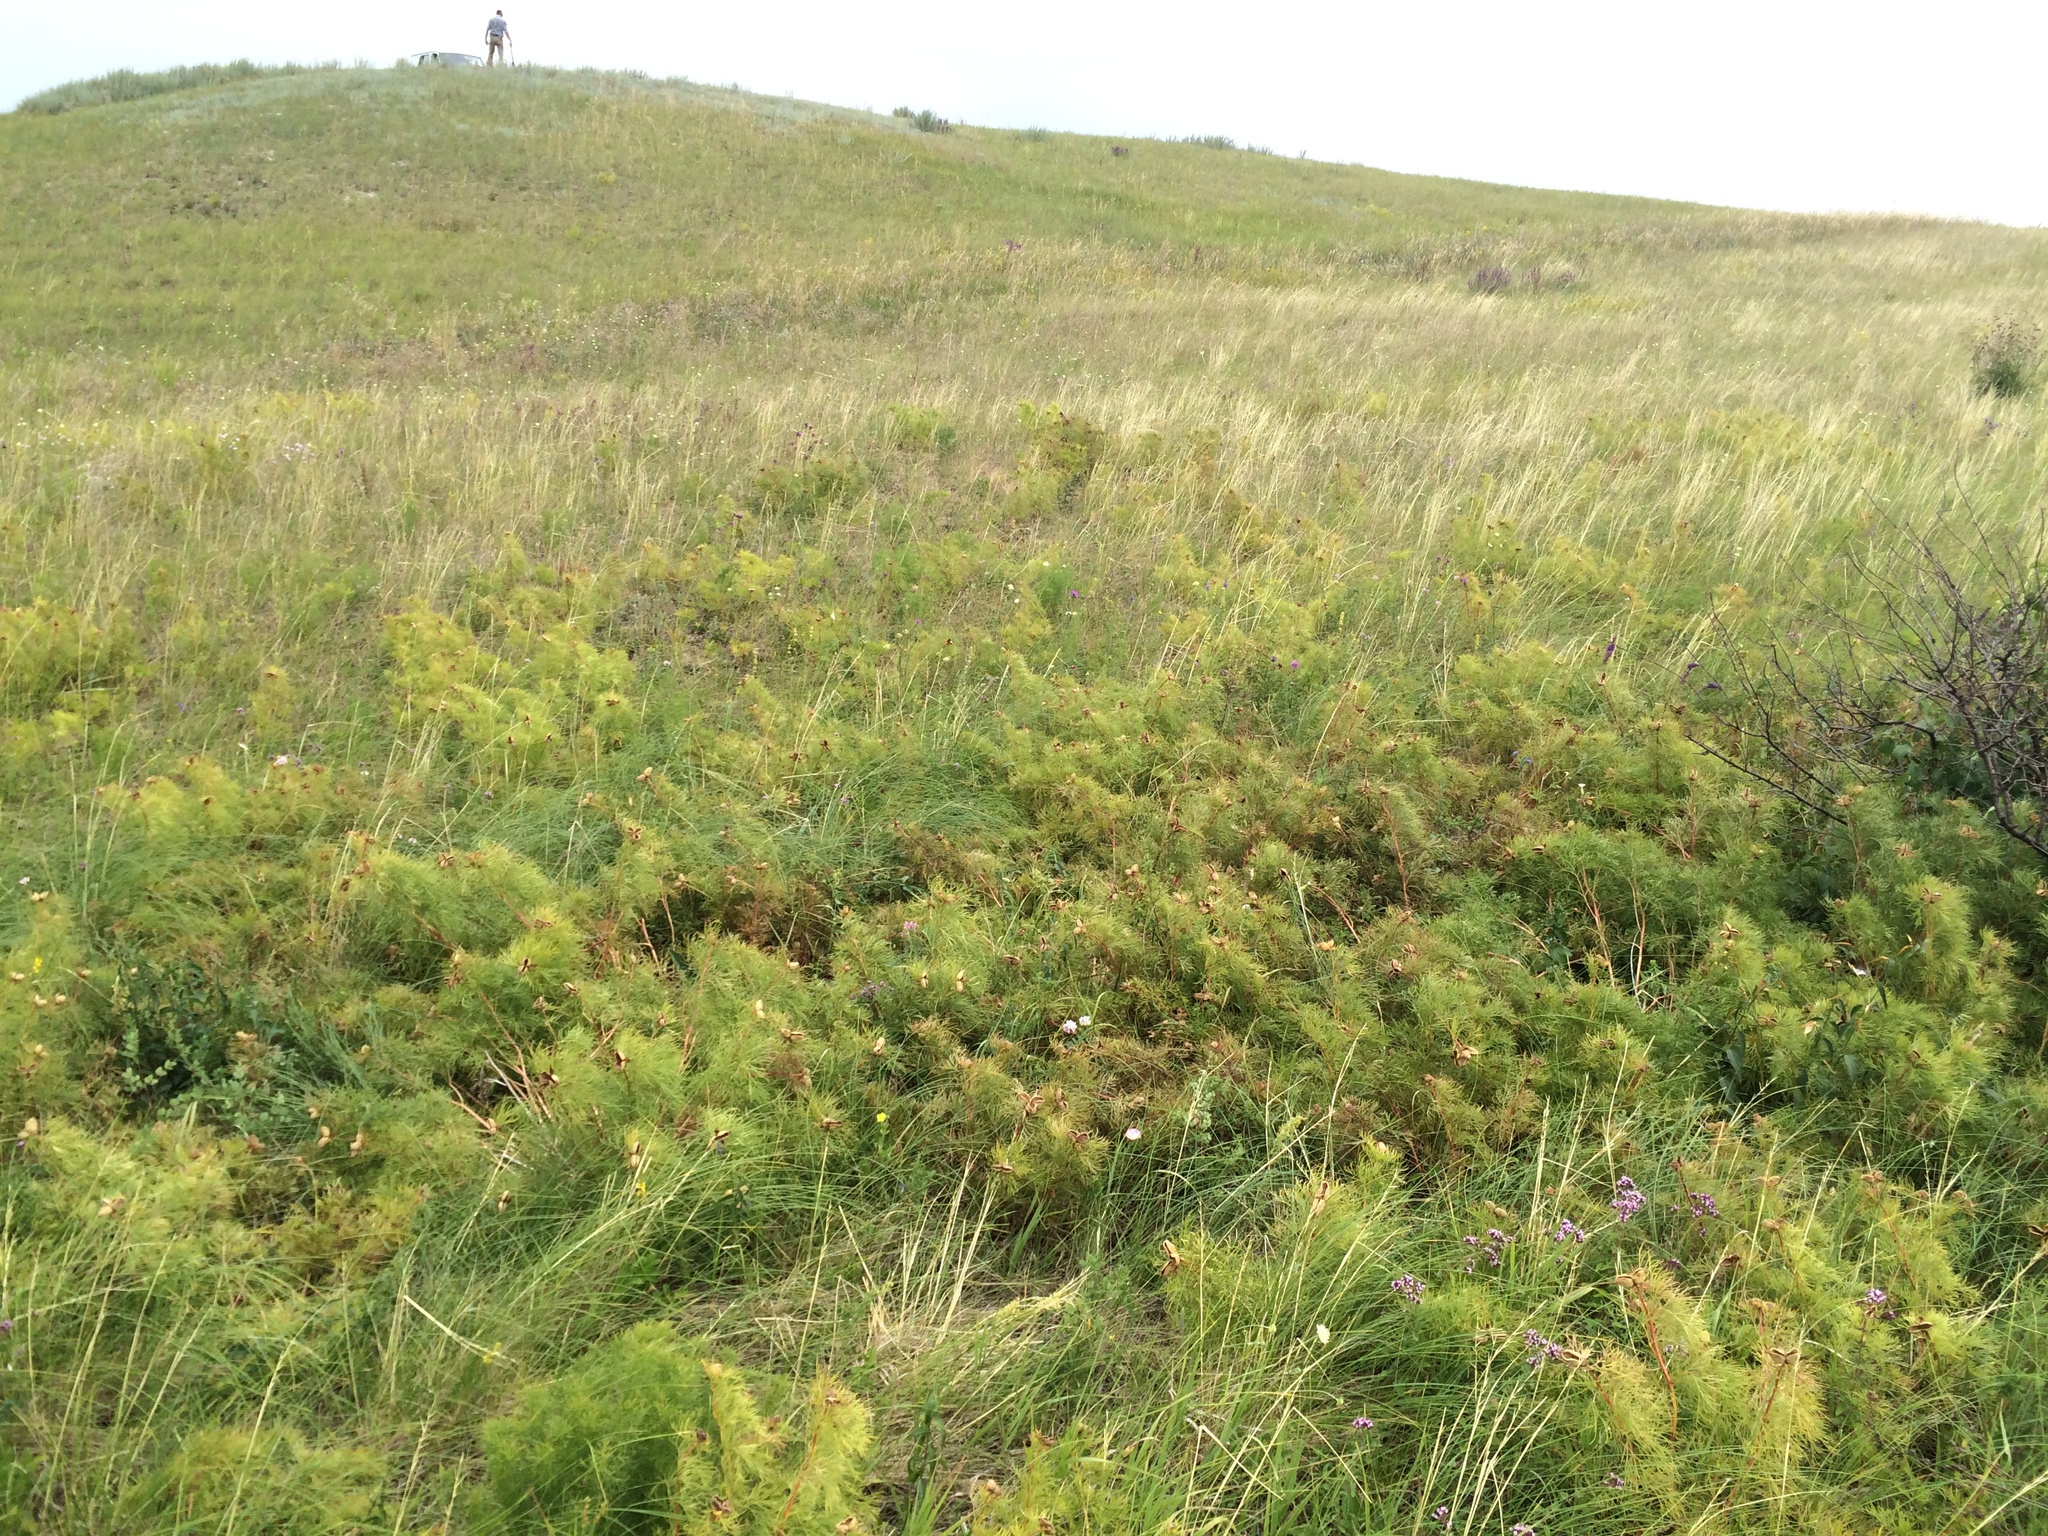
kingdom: Plantae
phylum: Tracheophyta
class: Magnoliopsida
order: Saxifragales
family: Paeoniaceae
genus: Paeonia
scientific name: Paeonia tenuifolia
